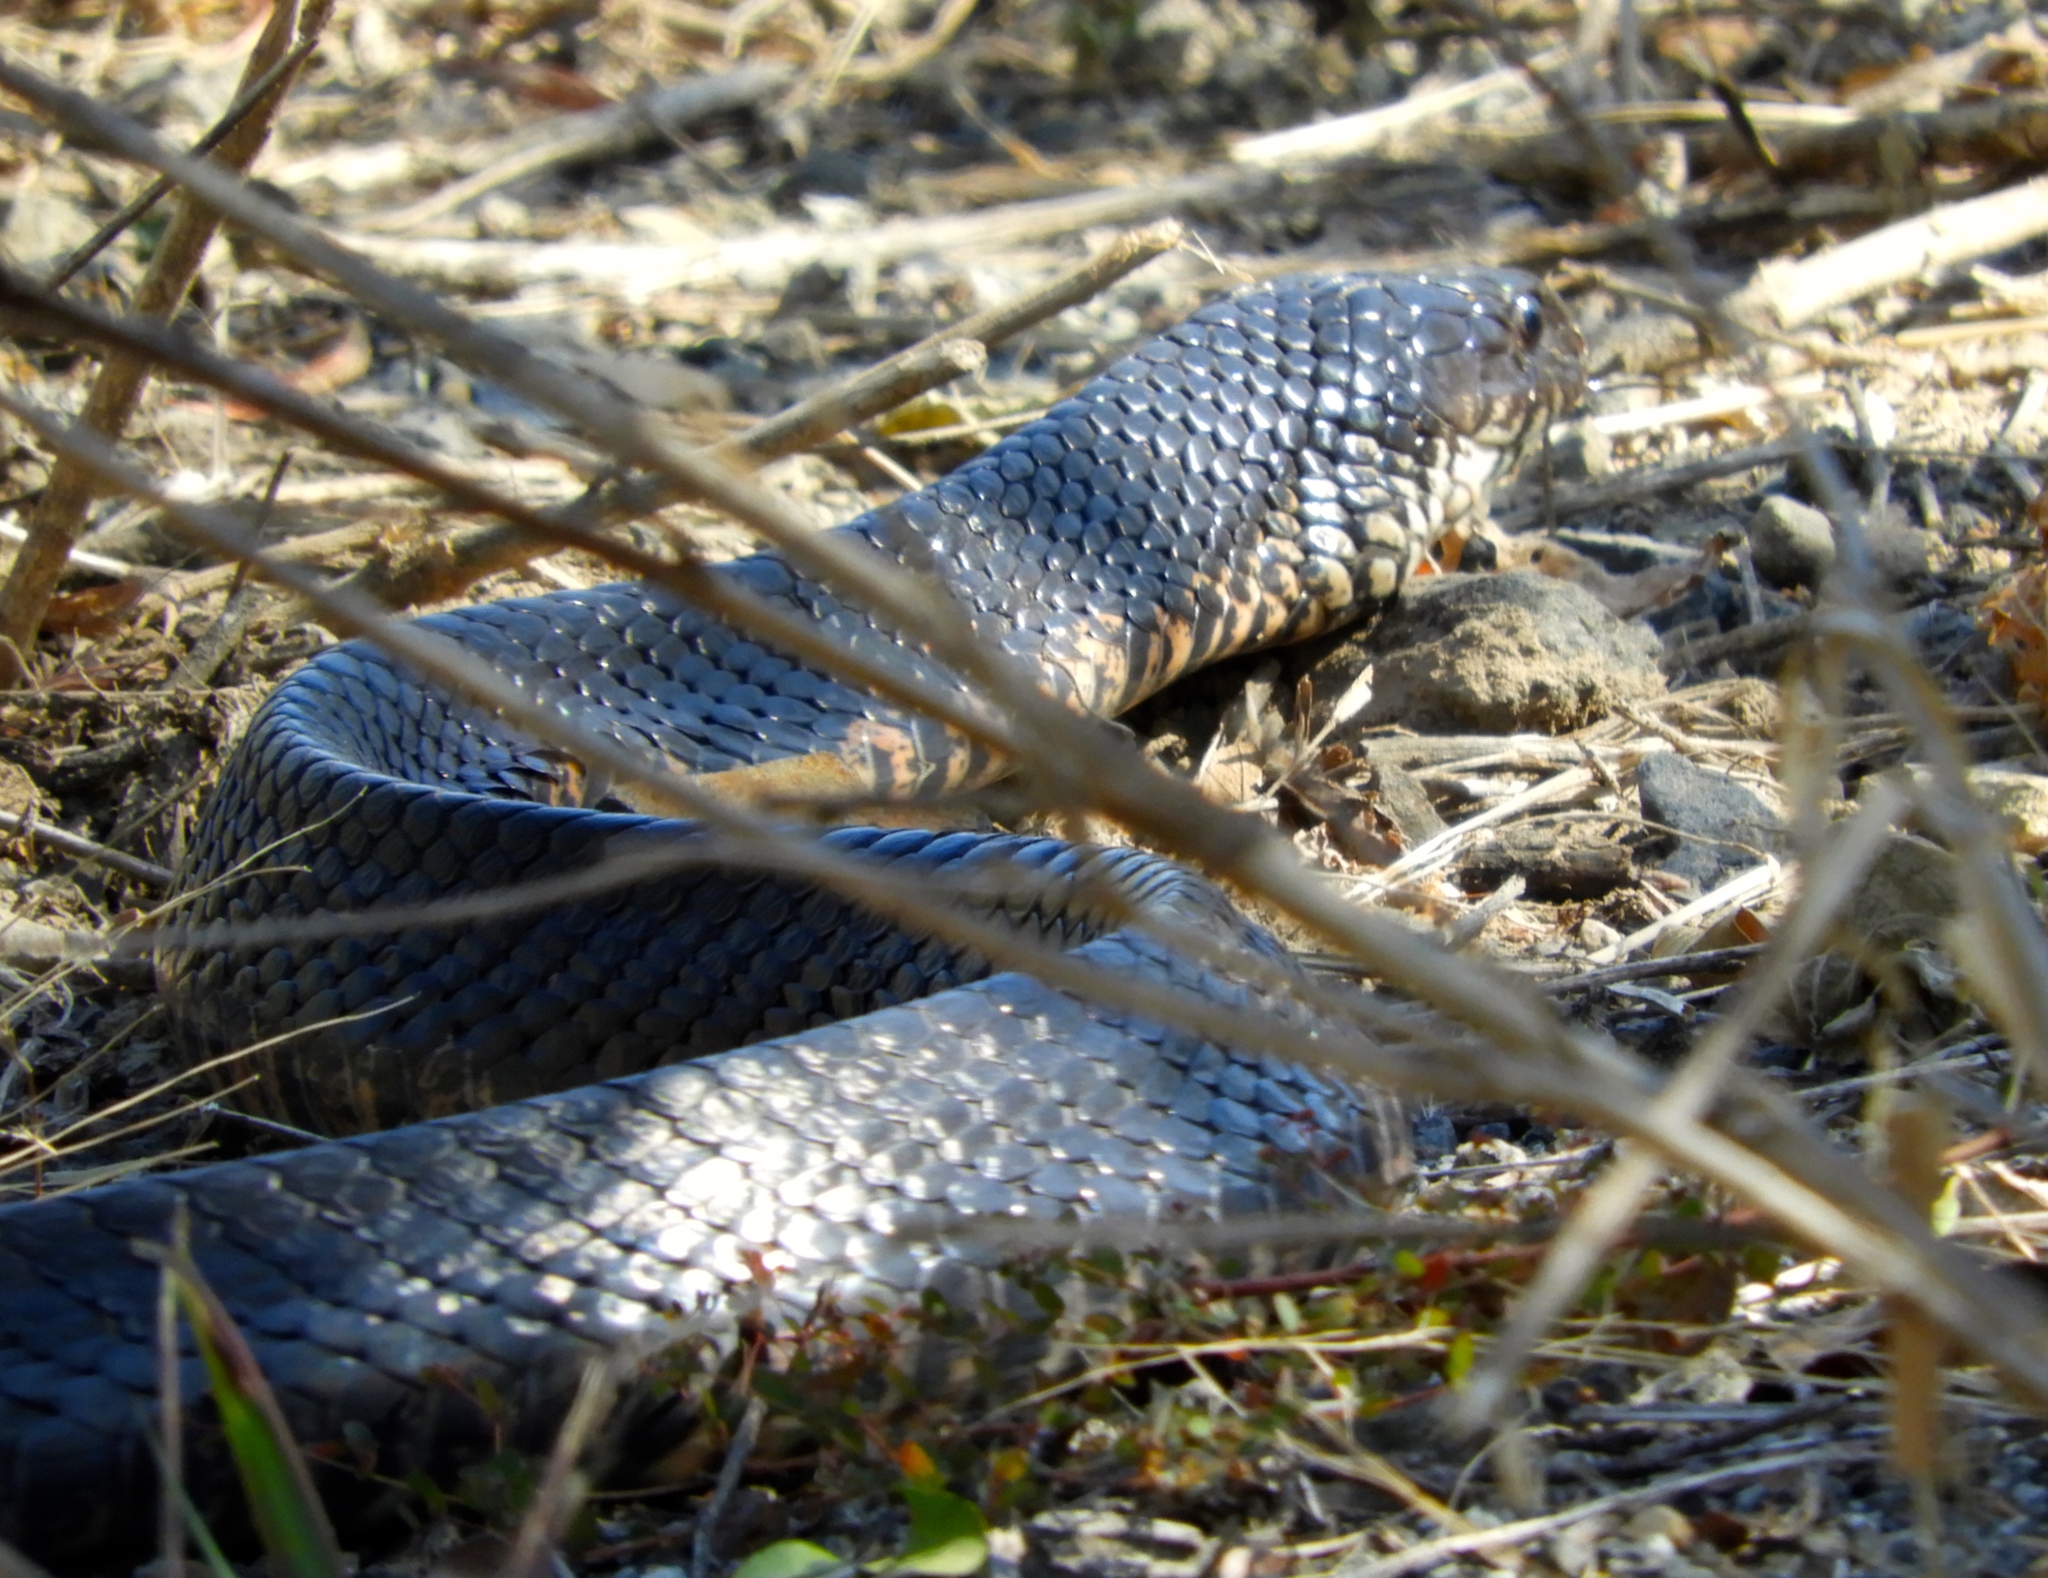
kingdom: Animalia
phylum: Chordata
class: Squamata
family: Colubridae
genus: Drymarchon
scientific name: Drymarchon melanurus
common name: Central american indigo snake
